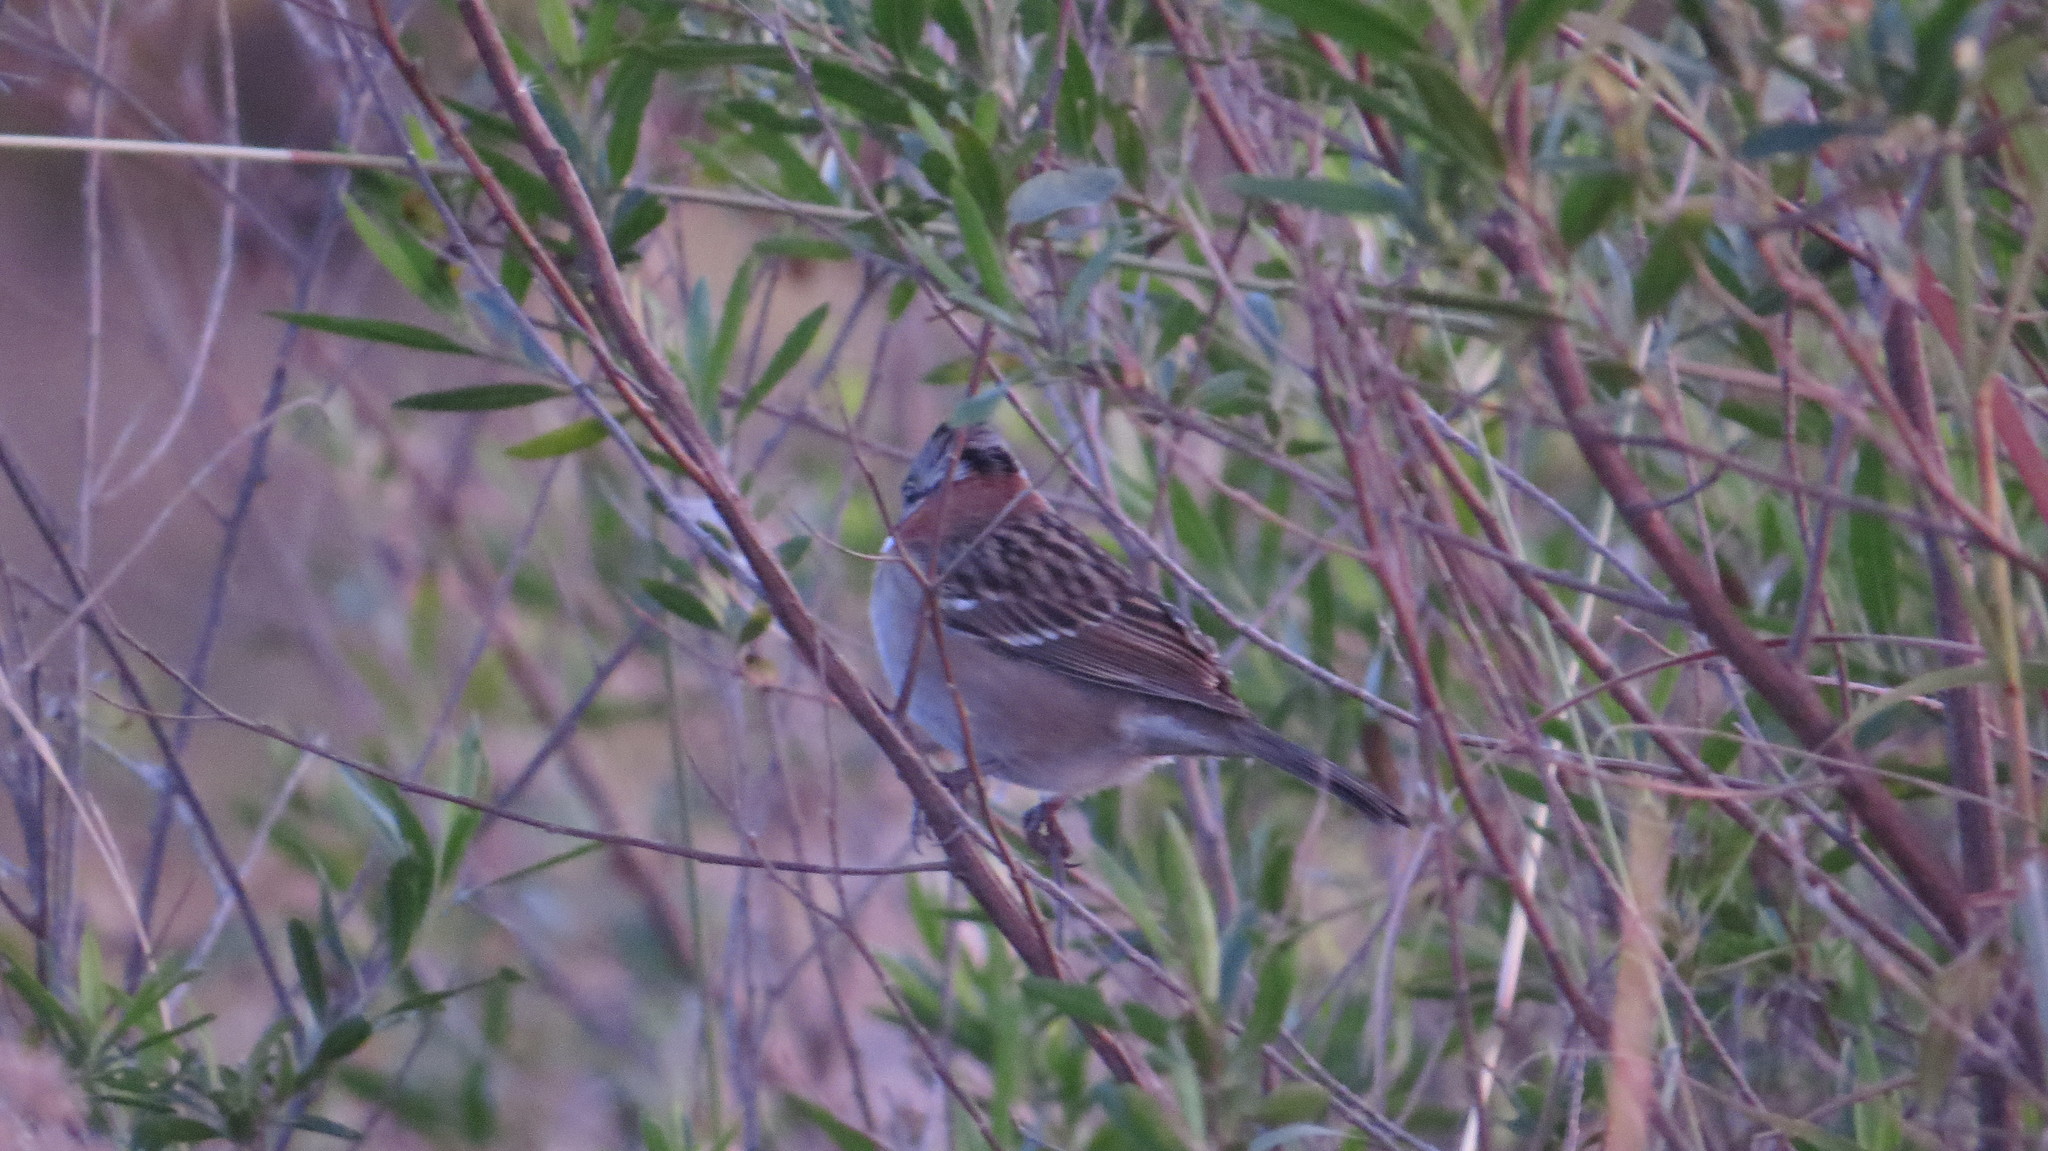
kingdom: Animalia
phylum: Chordata
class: Aves
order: Passeriformes
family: Passerellidae
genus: Zonotrichia
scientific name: Zonotrichia capensis
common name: Rufous-collared sparrow
